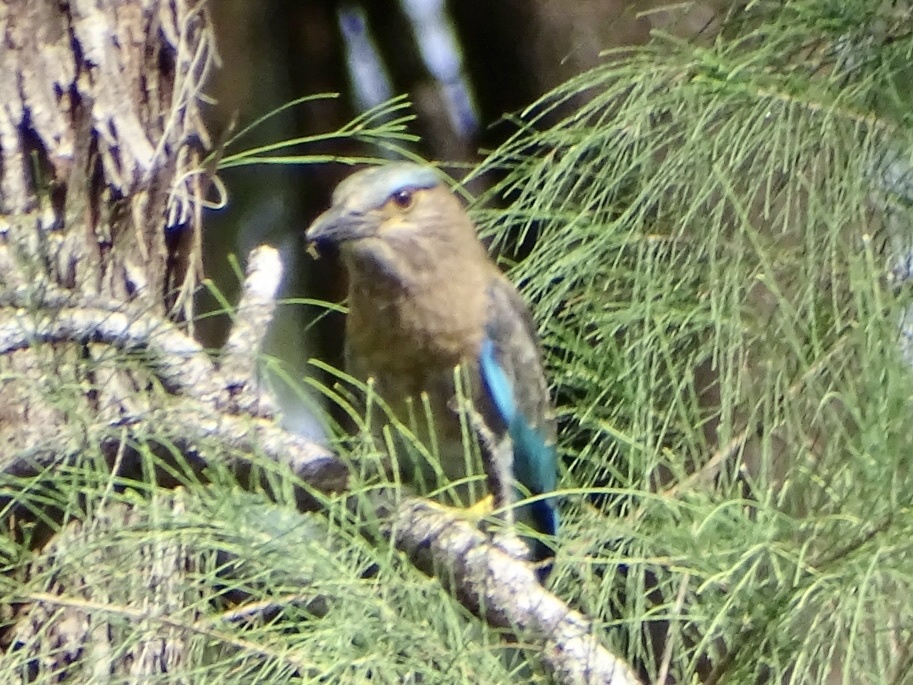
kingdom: Animalia
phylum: Chordata
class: Aves
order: Coraciiformes
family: Coraciidae
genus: Coracias
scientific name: Coracias affinis
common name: Indochinese roller
